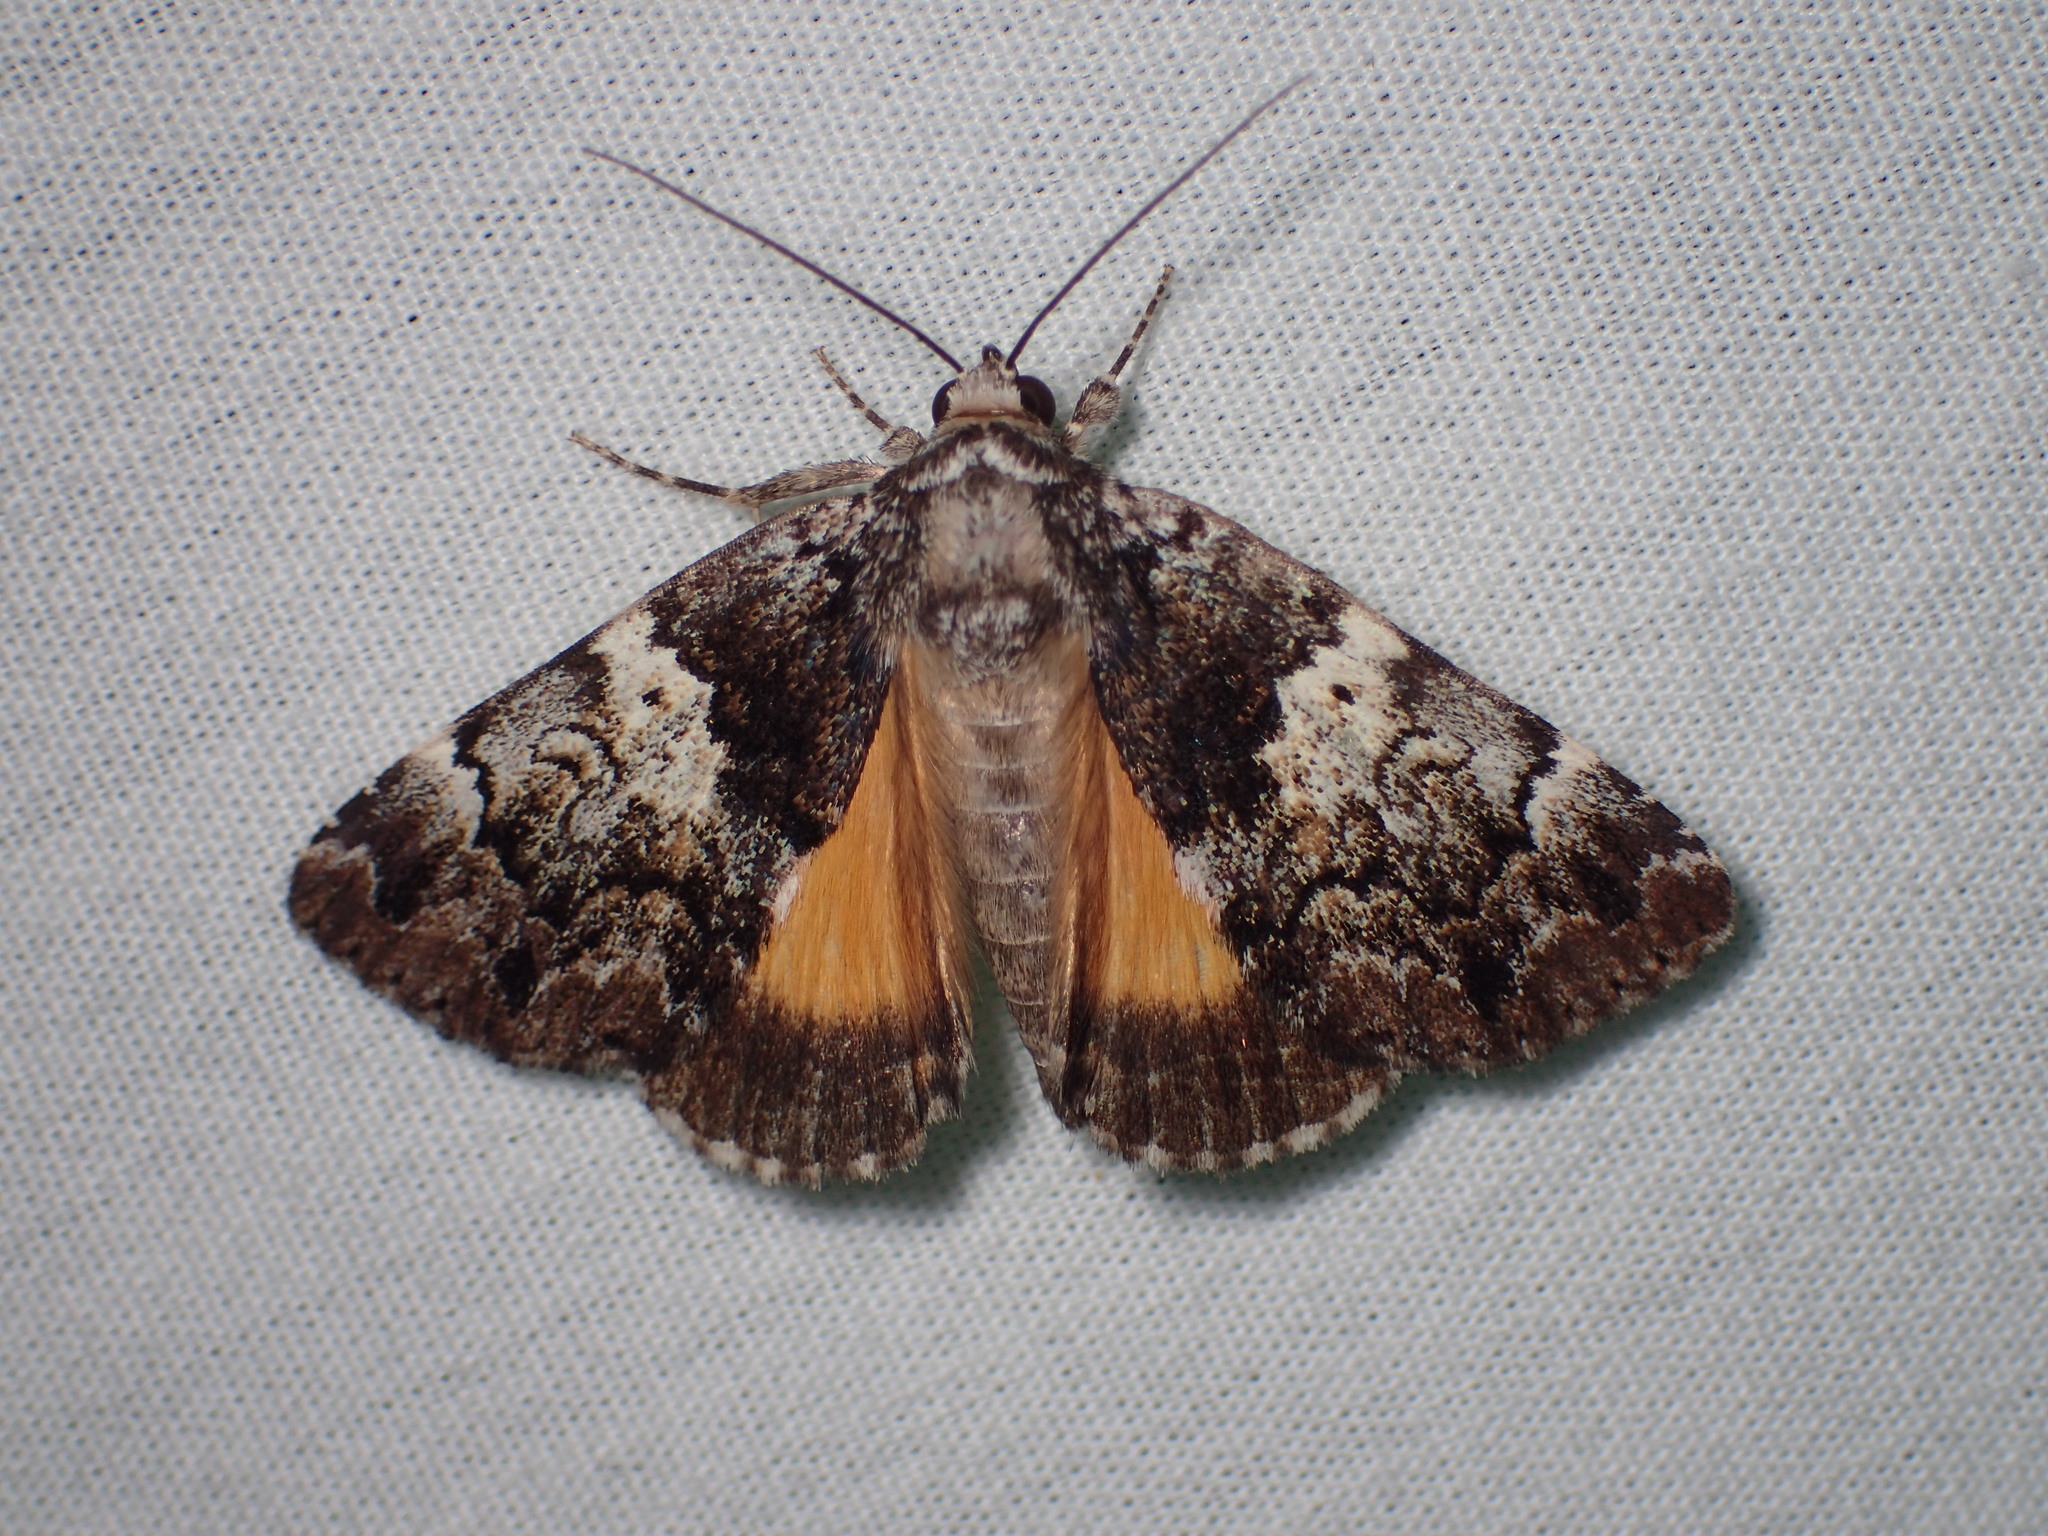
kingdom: Animalia
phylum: Arthropoda
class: Insecta
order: Lepidoptera
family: Erebidae
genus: Allotria
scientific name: Allotria elonympha
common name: False underwing
